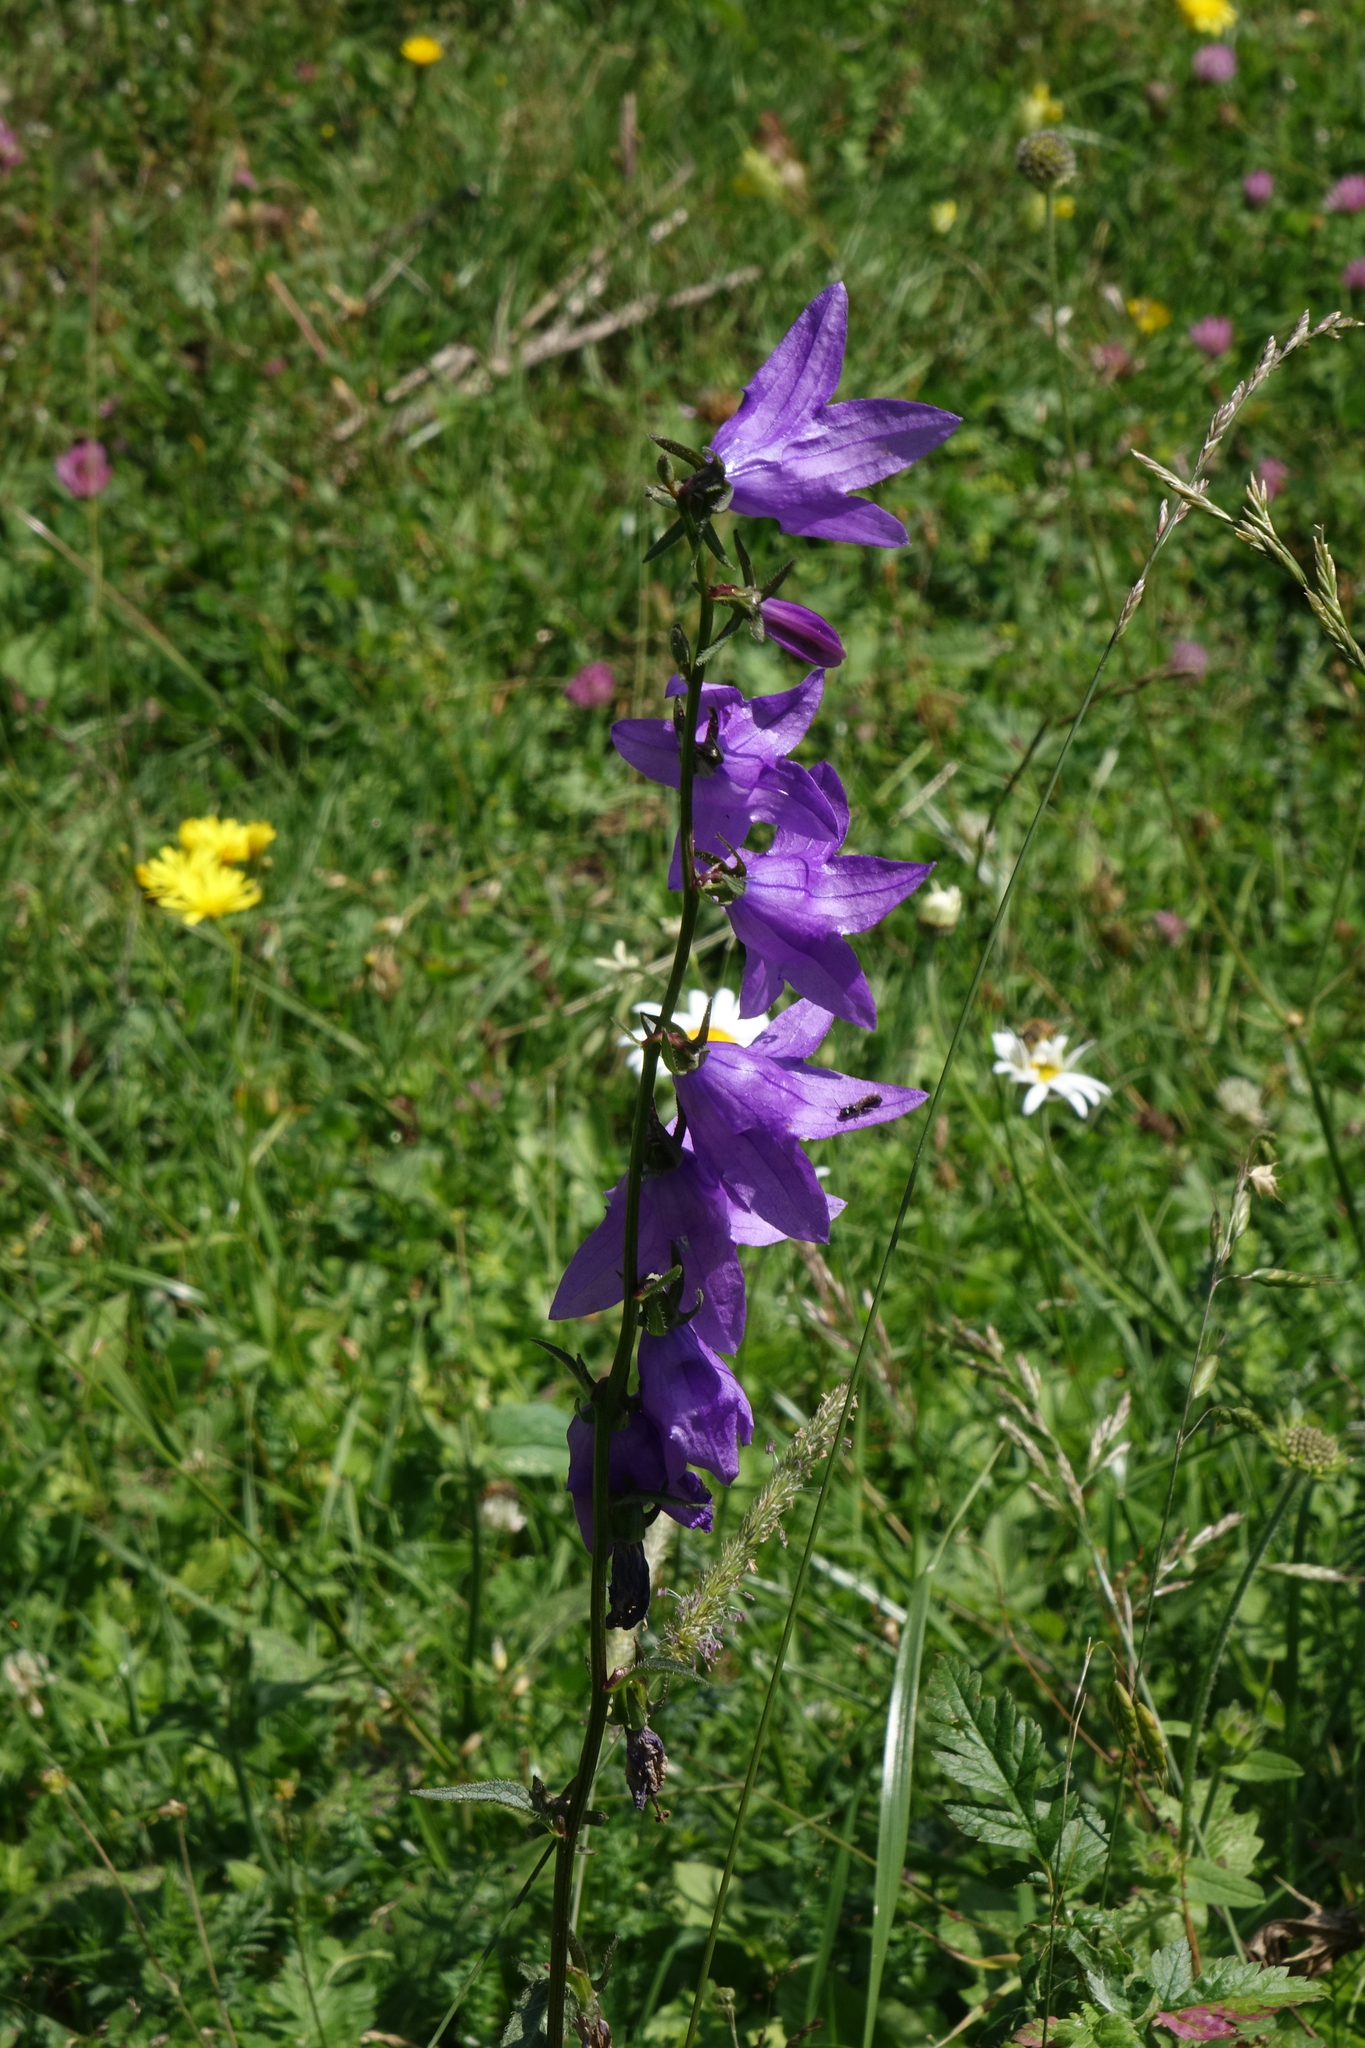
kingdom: Plantae
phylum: Tracheophyta
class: Magnoliopsida
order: Asterales
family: Campanulaceae
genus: Campanula
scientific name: Campanula rapunculoides
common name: Creeping bellflower
